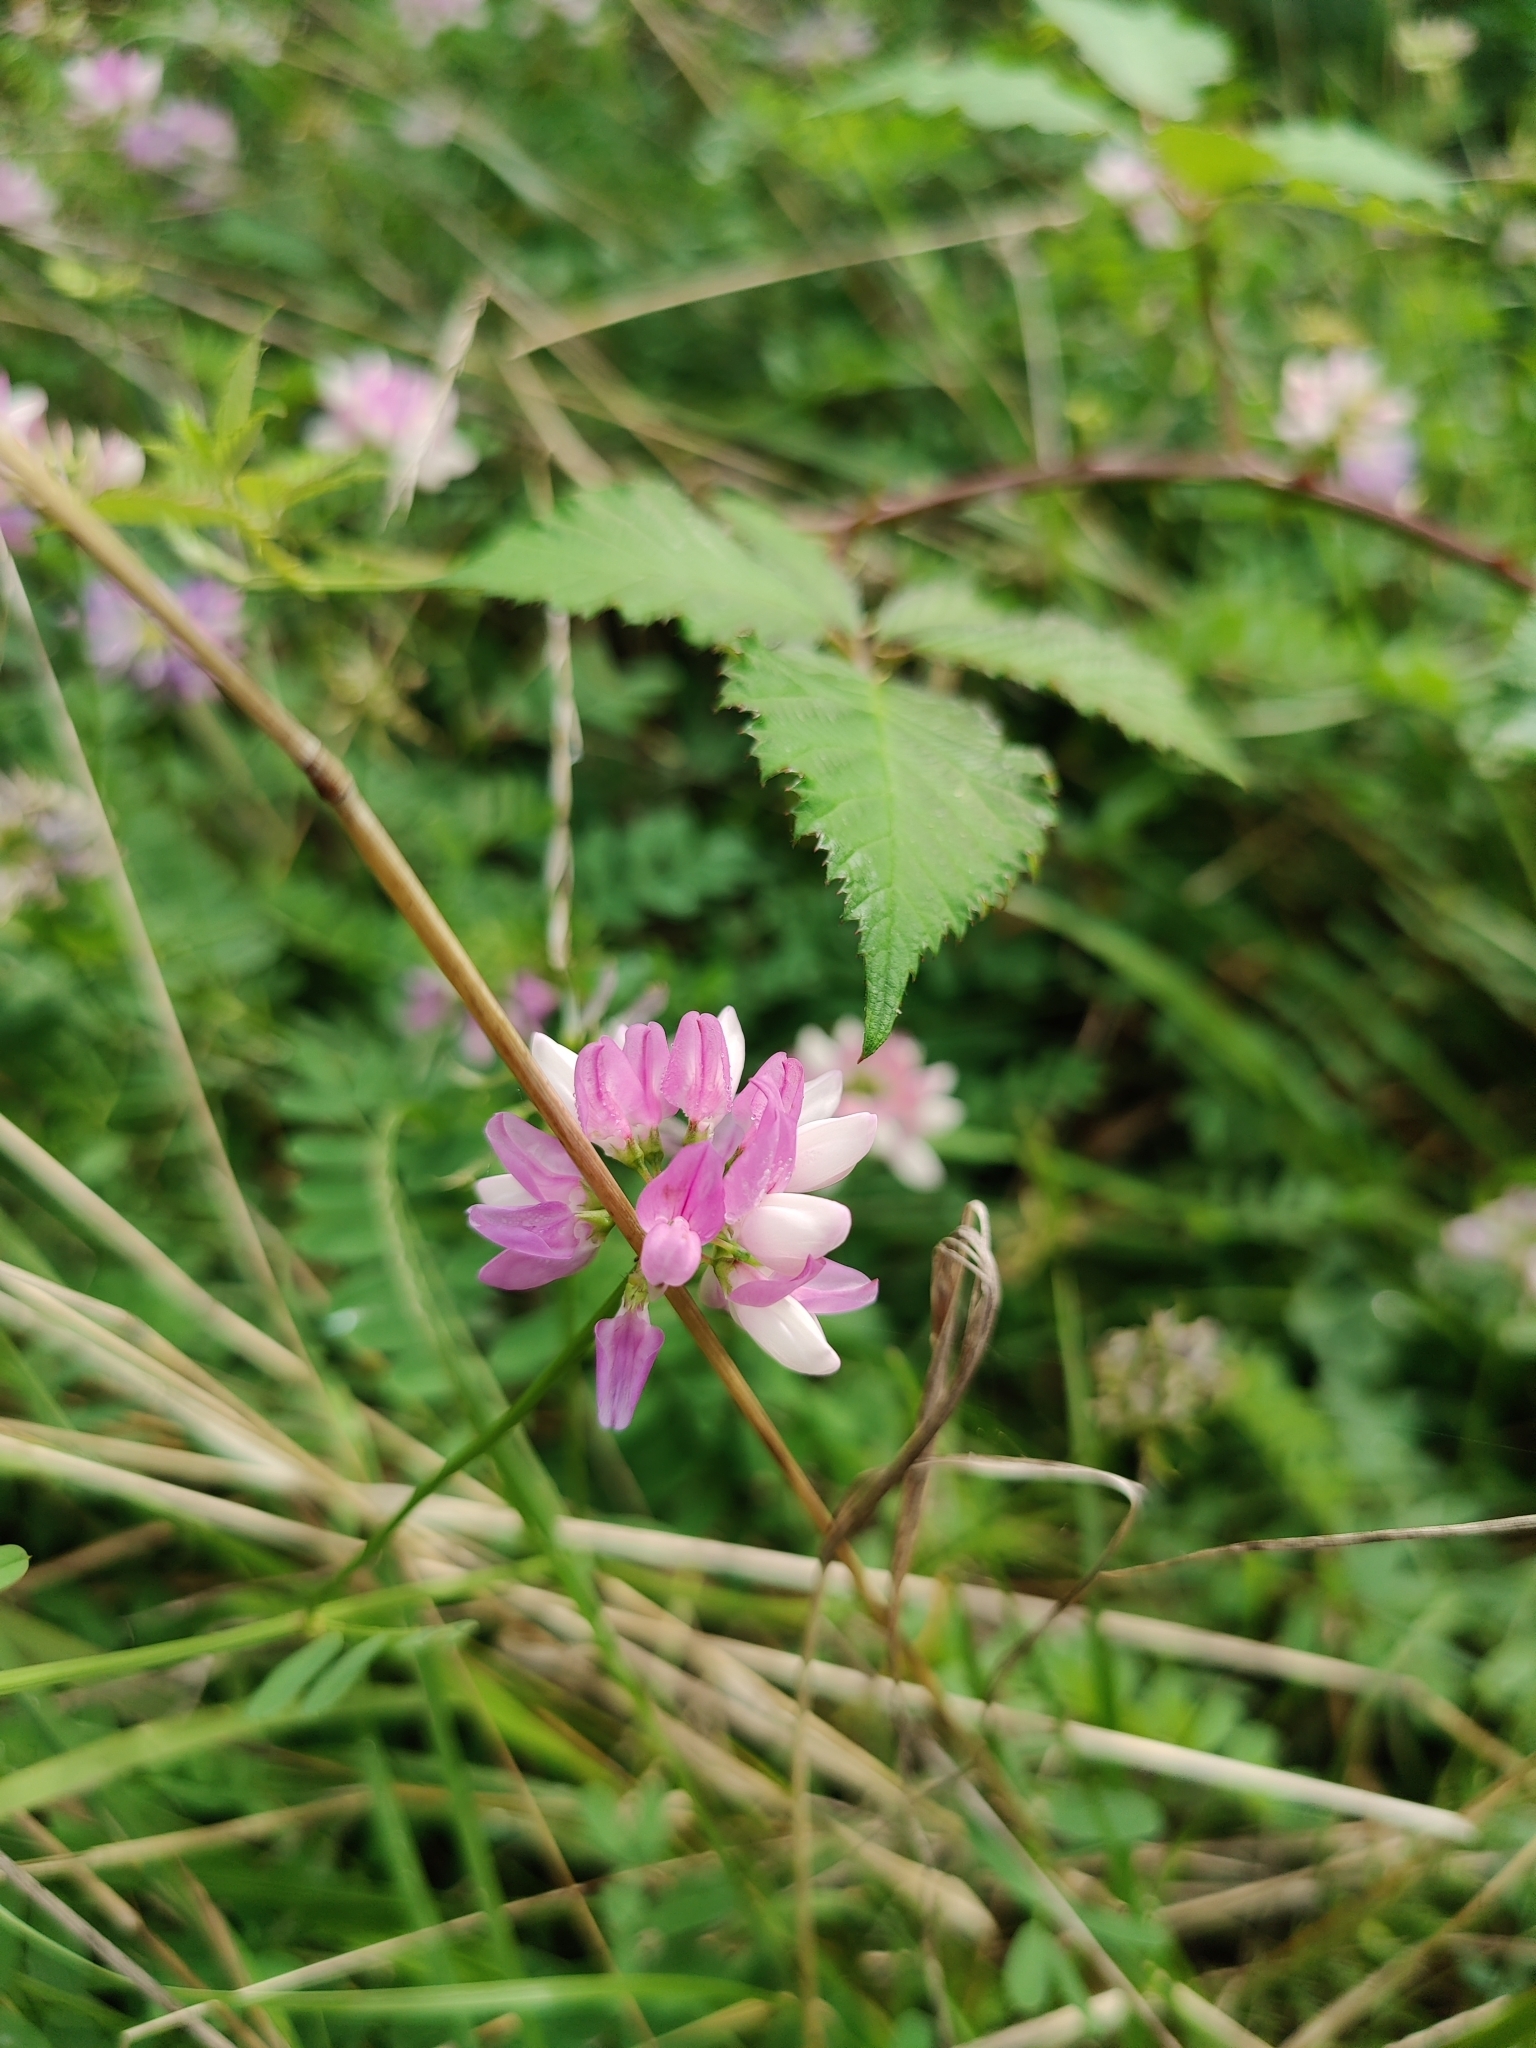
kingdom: Plantae
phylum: Tracheophyta
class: Magnoliopsida
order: Fabales
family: Fabaceae
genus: Coronilla
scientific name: Coronilla varia
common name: Crownvetch
